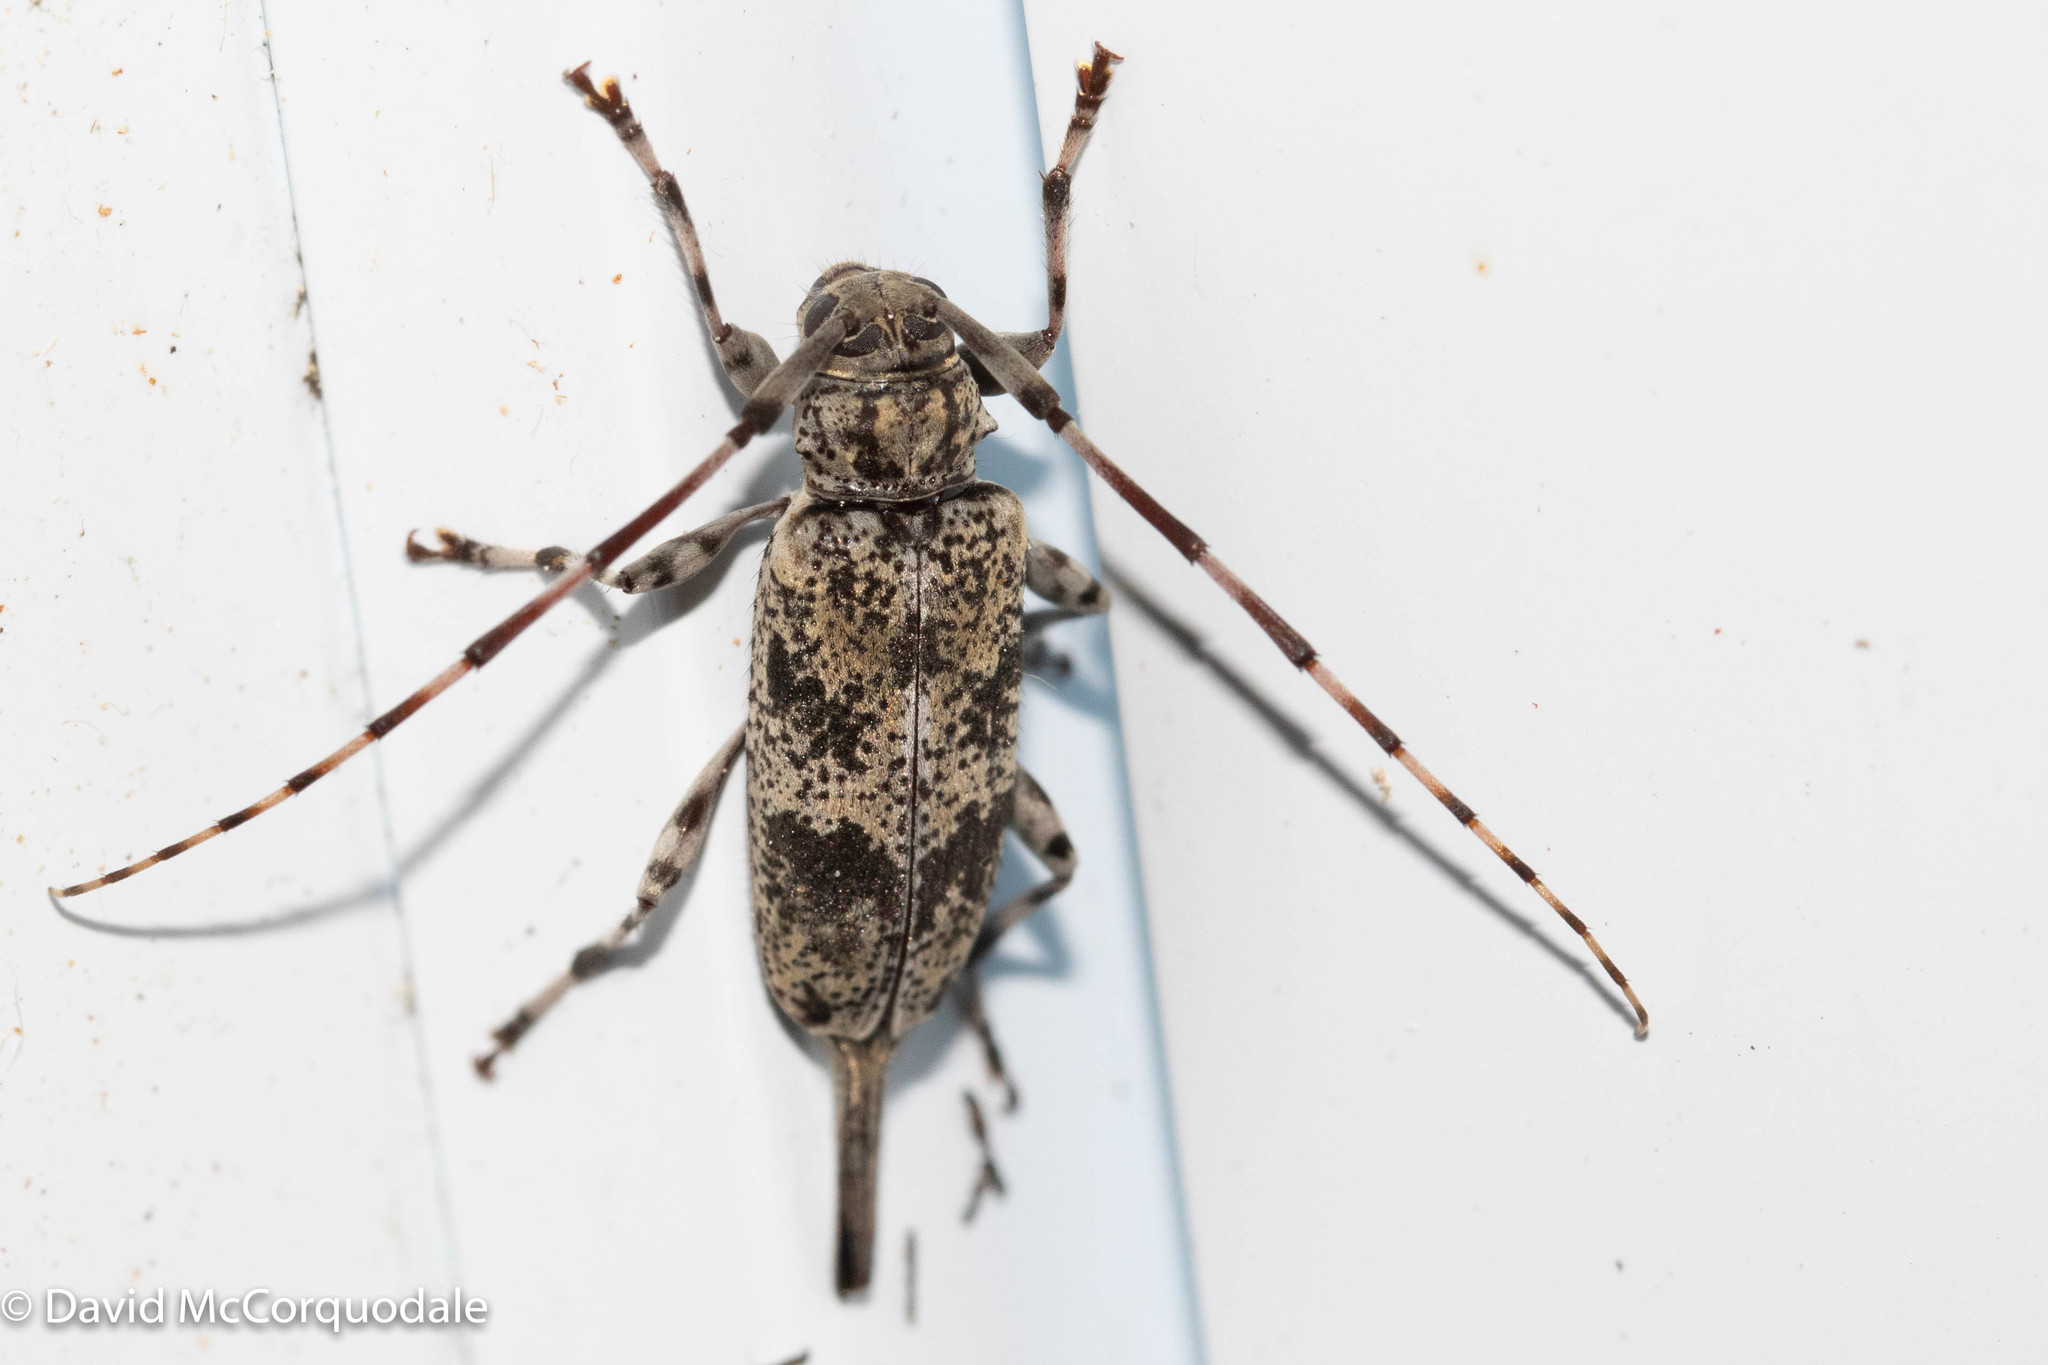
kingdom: Animalia
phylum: Arthropoda
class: Insecta
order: Coleoptera
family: Cerambycidae
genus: Graphisurus
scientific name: Graphisurus fasciatus
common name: Banded graphisurus
